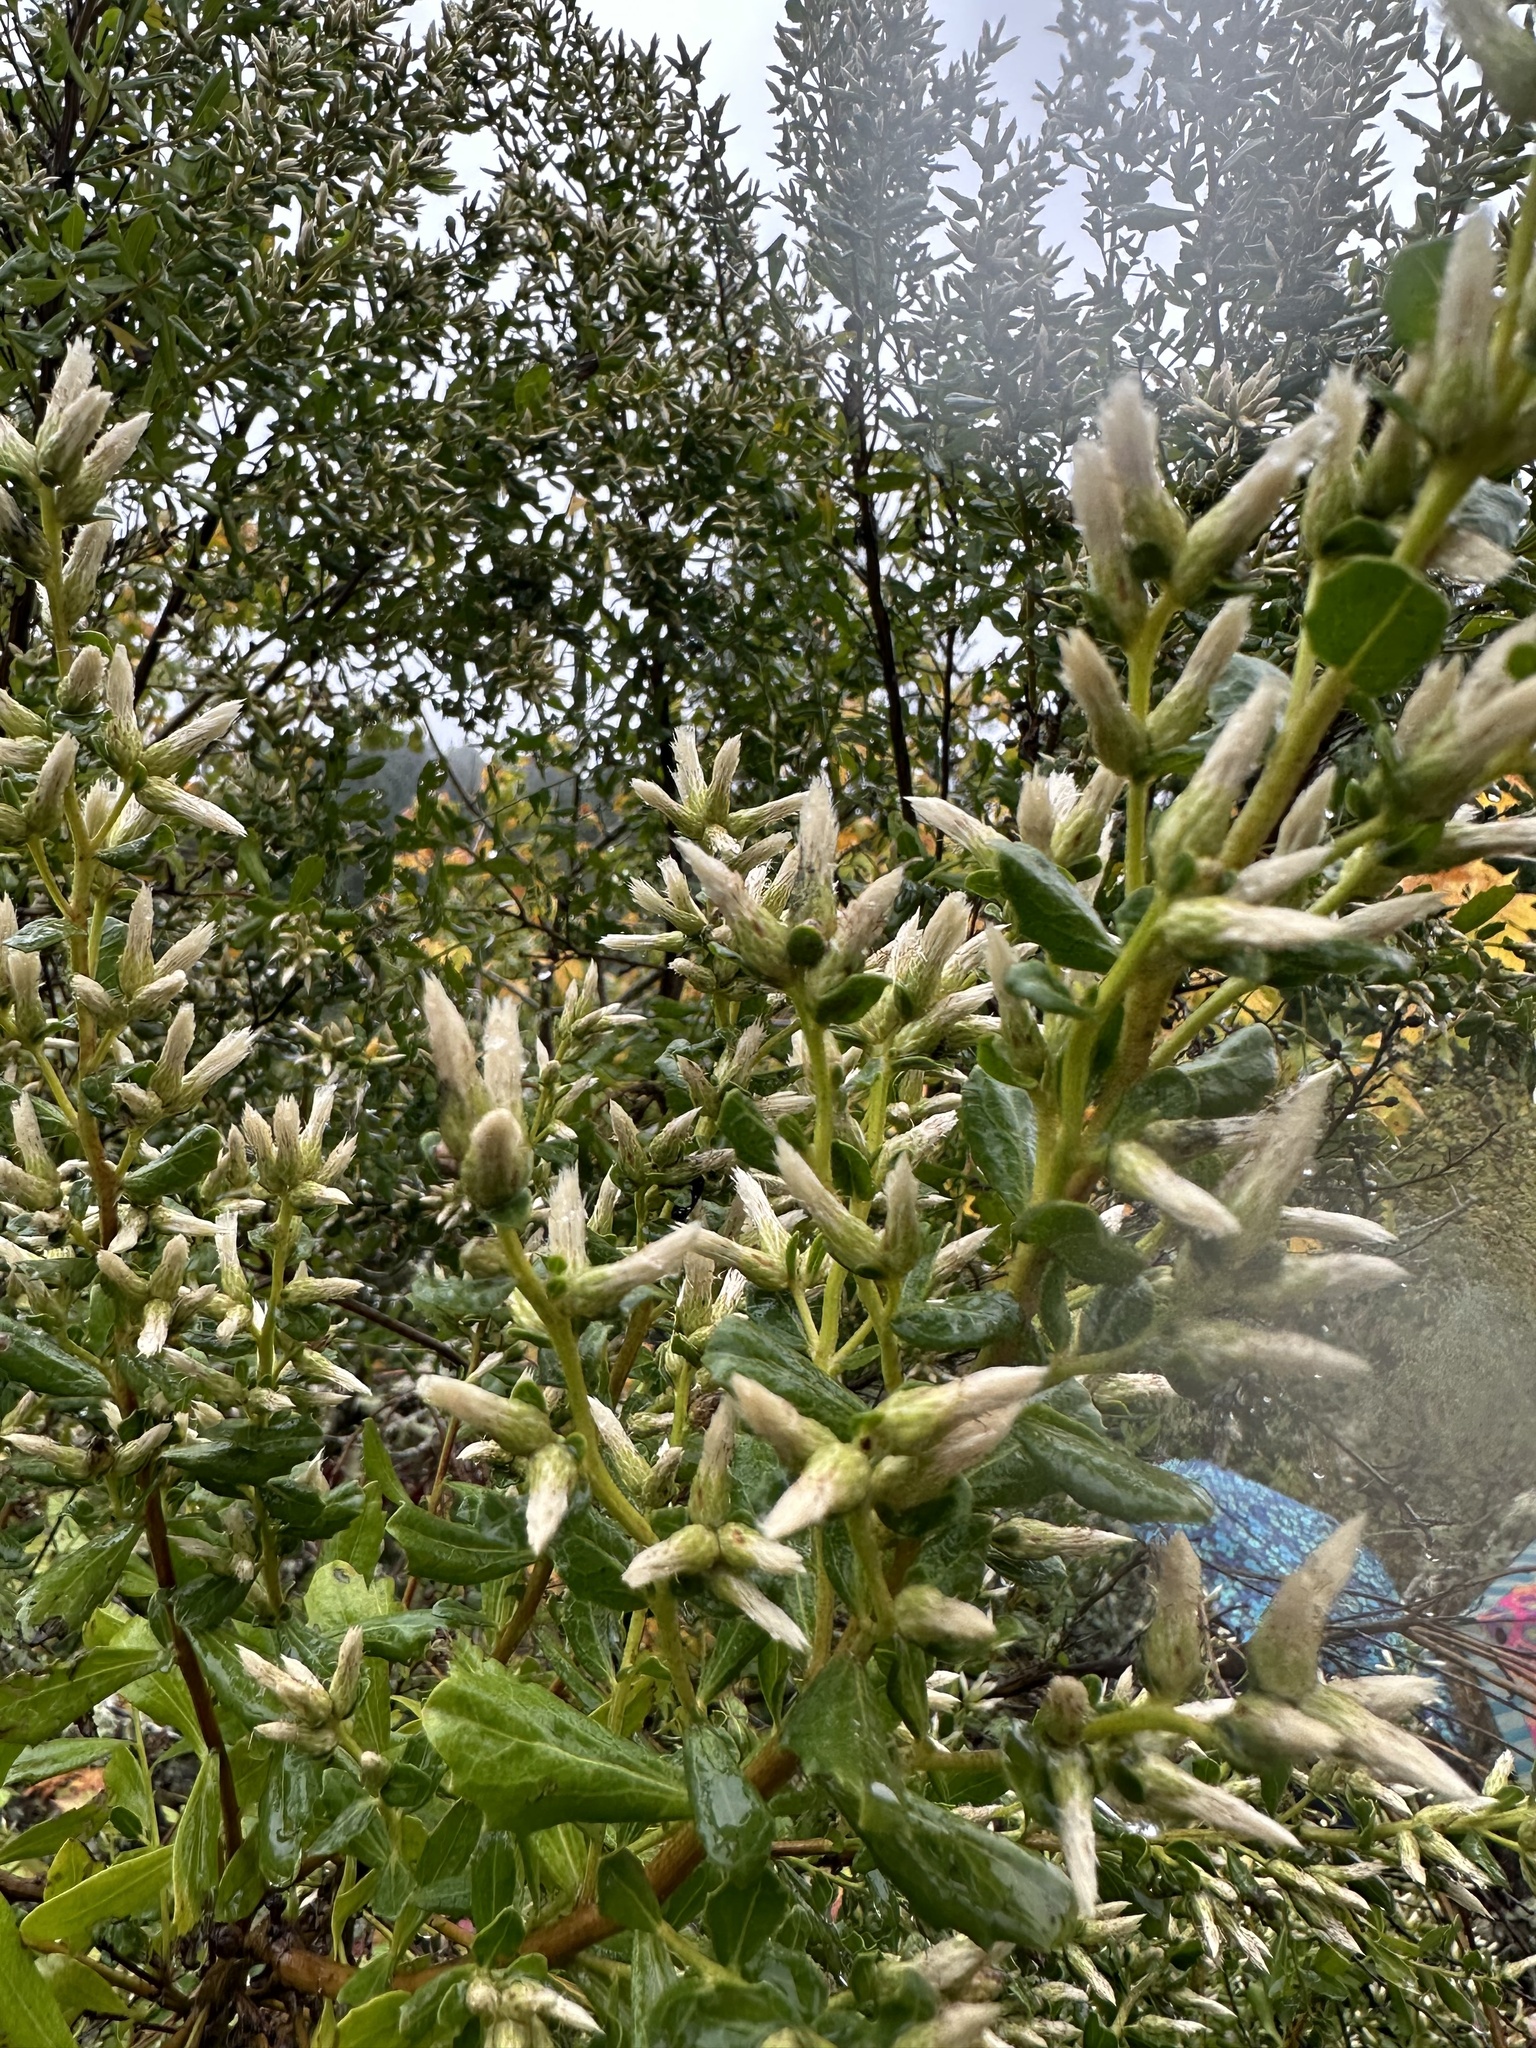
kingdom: Plantae
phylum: Tracheophyta
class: Magnoliopsida
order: Asterales
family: Asteraceae
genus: Baccharis
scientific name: Baccharis pilularis
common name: Coyotebrush
